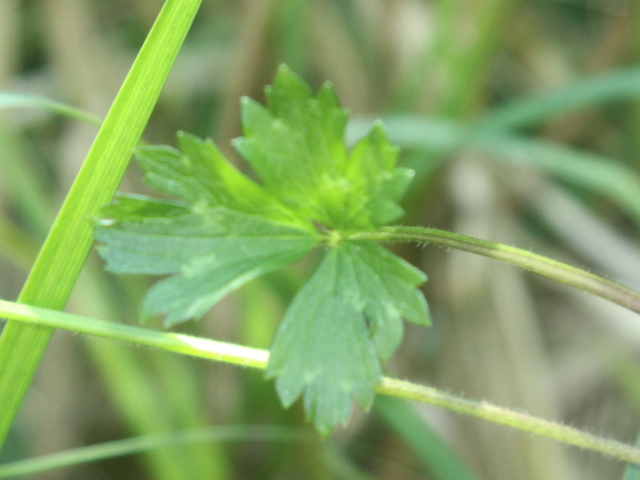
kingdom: Plantae
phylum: Tracheophyta
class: Magnoliopsida
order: Ranunculales
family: Ranunculaceae
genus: Ranunculus
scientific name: Ranunculus repens
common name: Creeping buttercup
